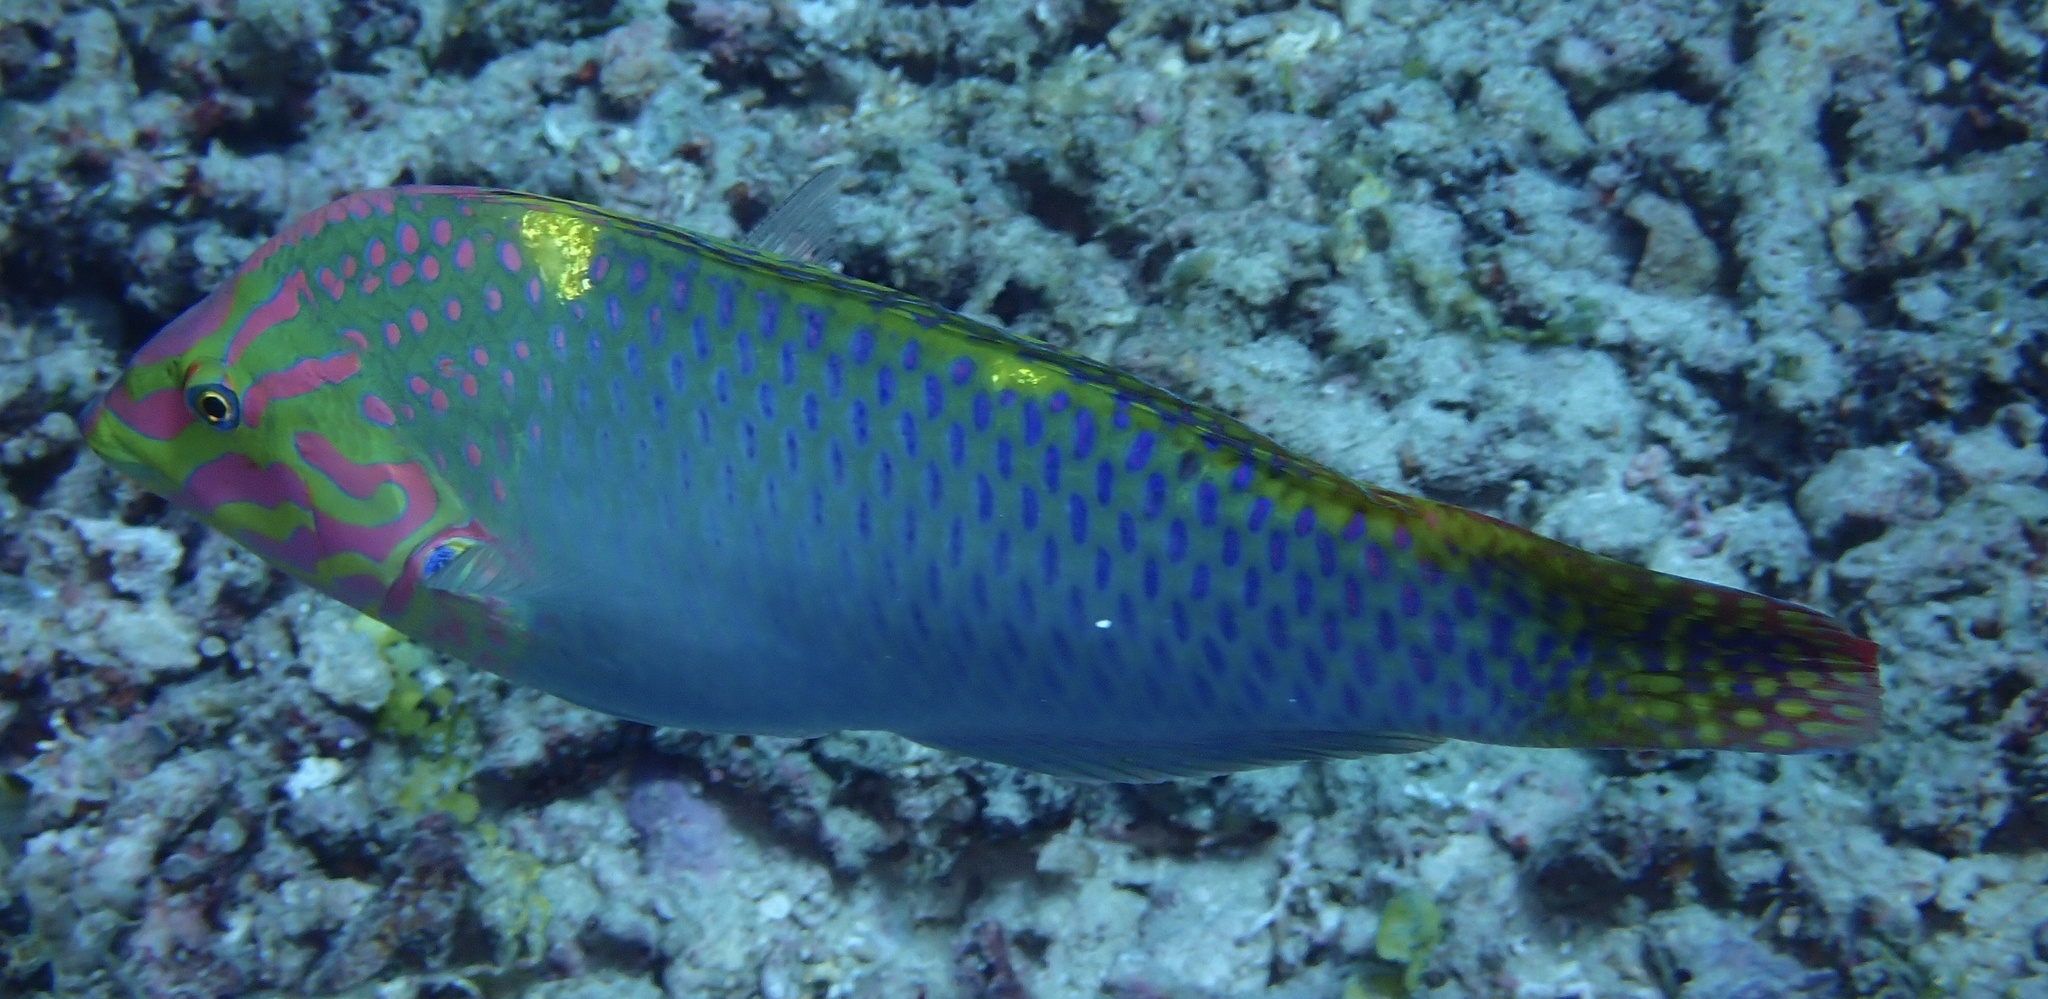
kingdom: Animalia
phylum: Chordata
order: Perciformes
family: Labridae
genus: Halichoeres
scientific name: Halichoeres hortulanus
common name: Checkerboard wrasse
